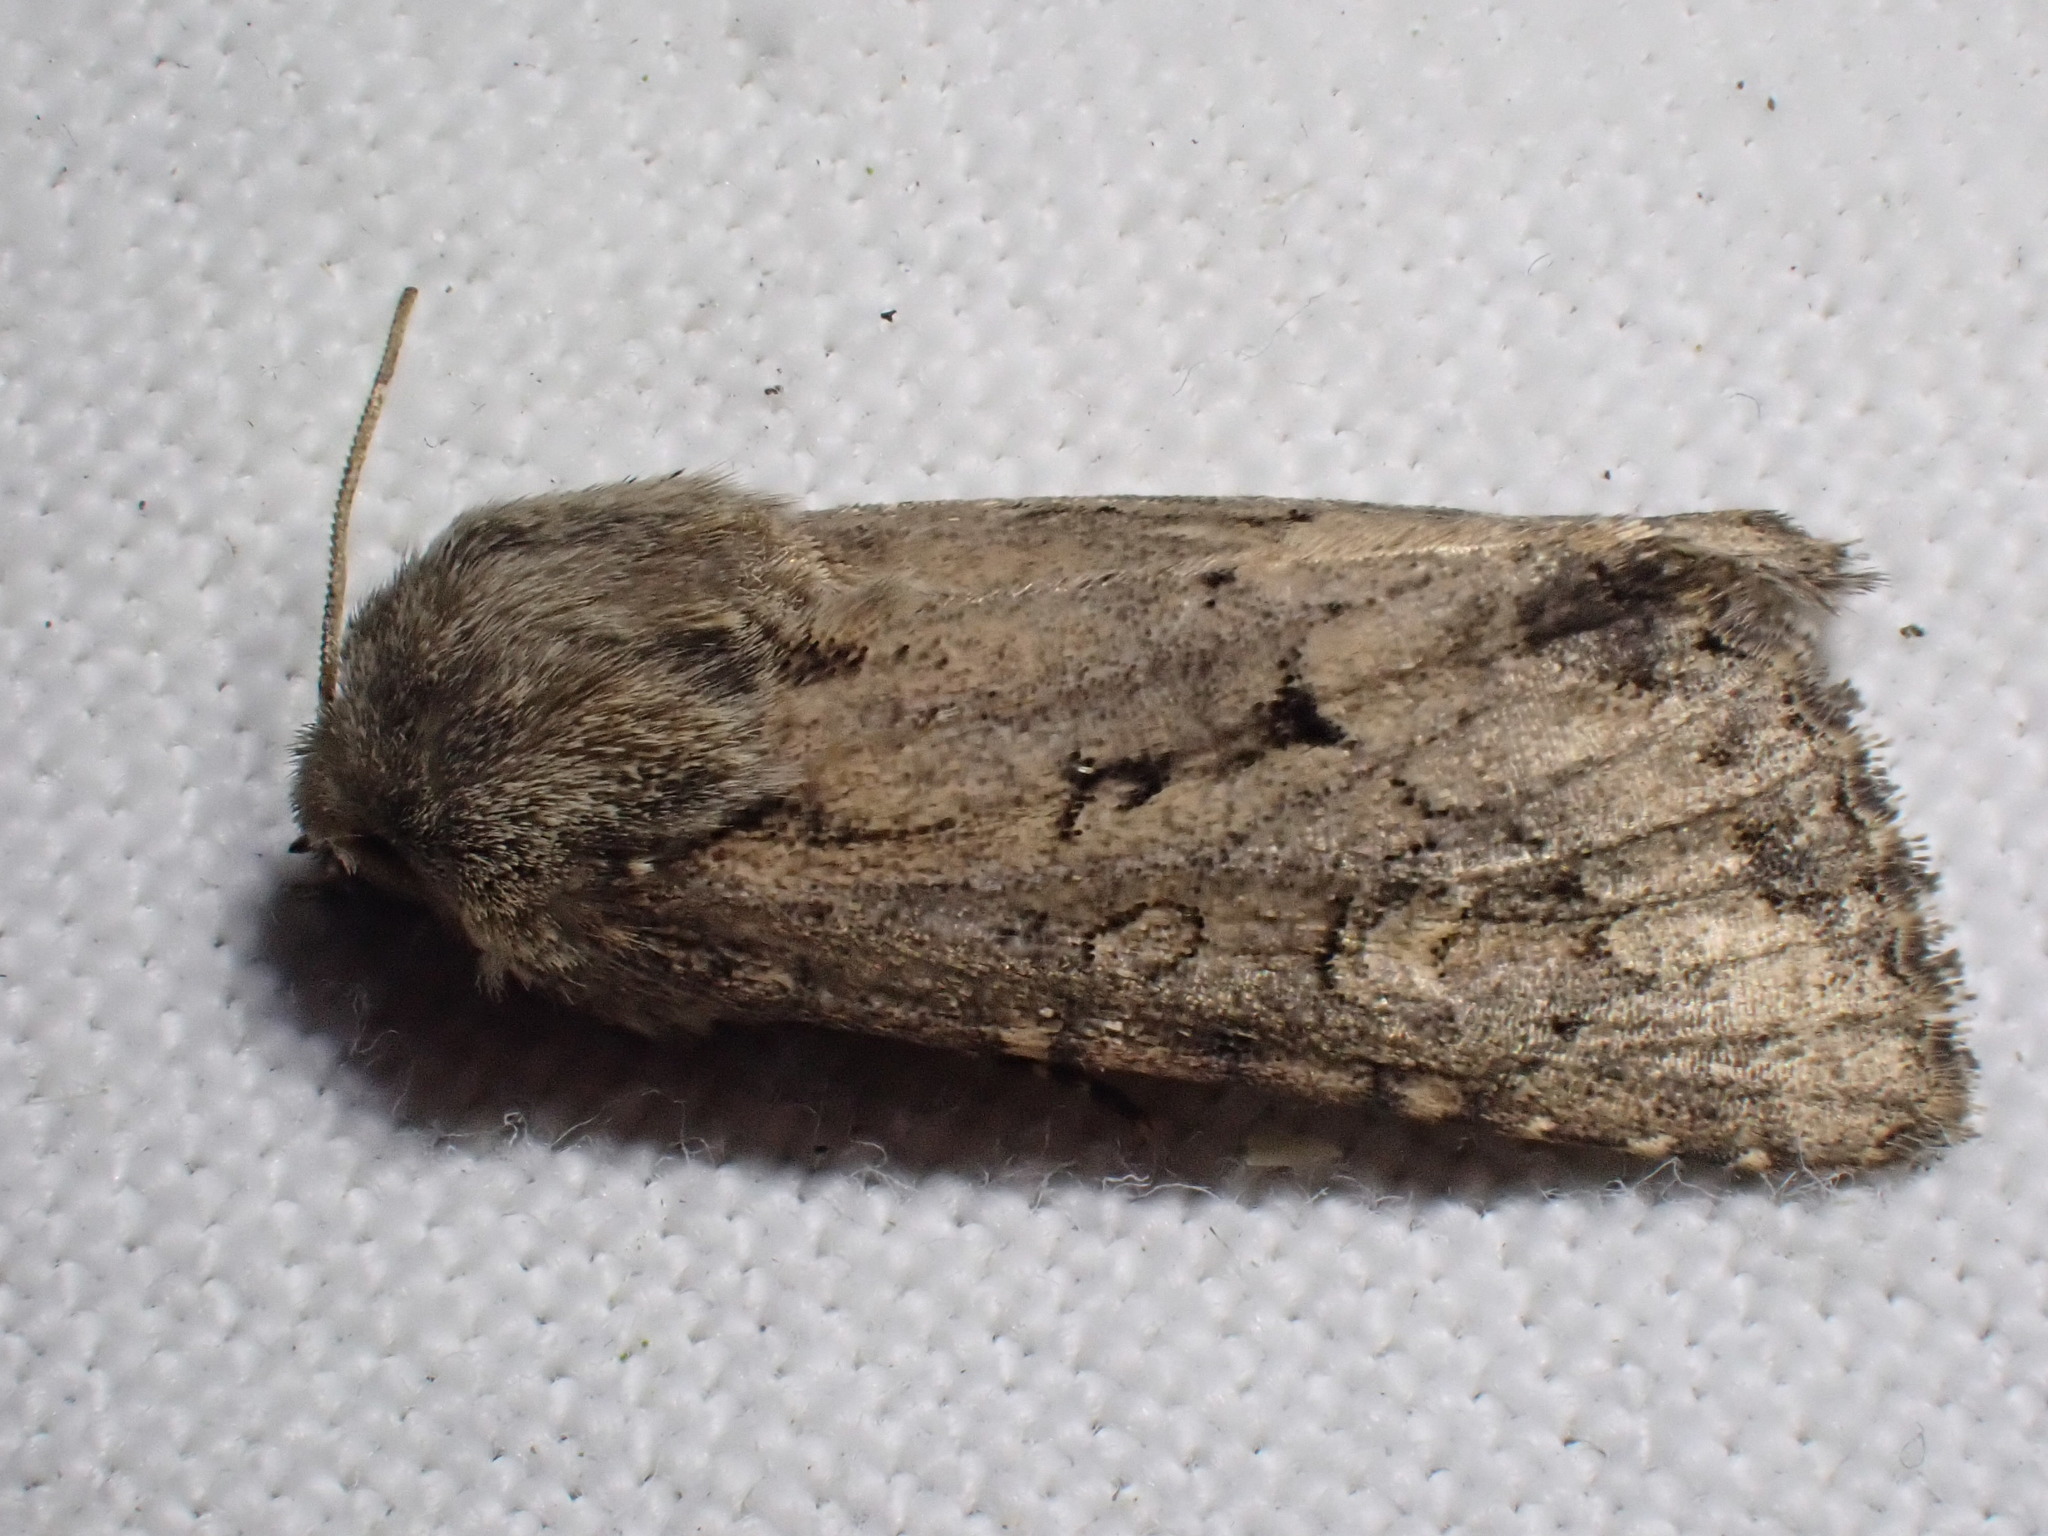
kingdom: Animalia
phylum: Arthropoda
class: Insecta
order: Lepidoptera
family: Noctuidae
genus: Luperina
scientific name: Luperina testacea
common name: Flounced rustic
